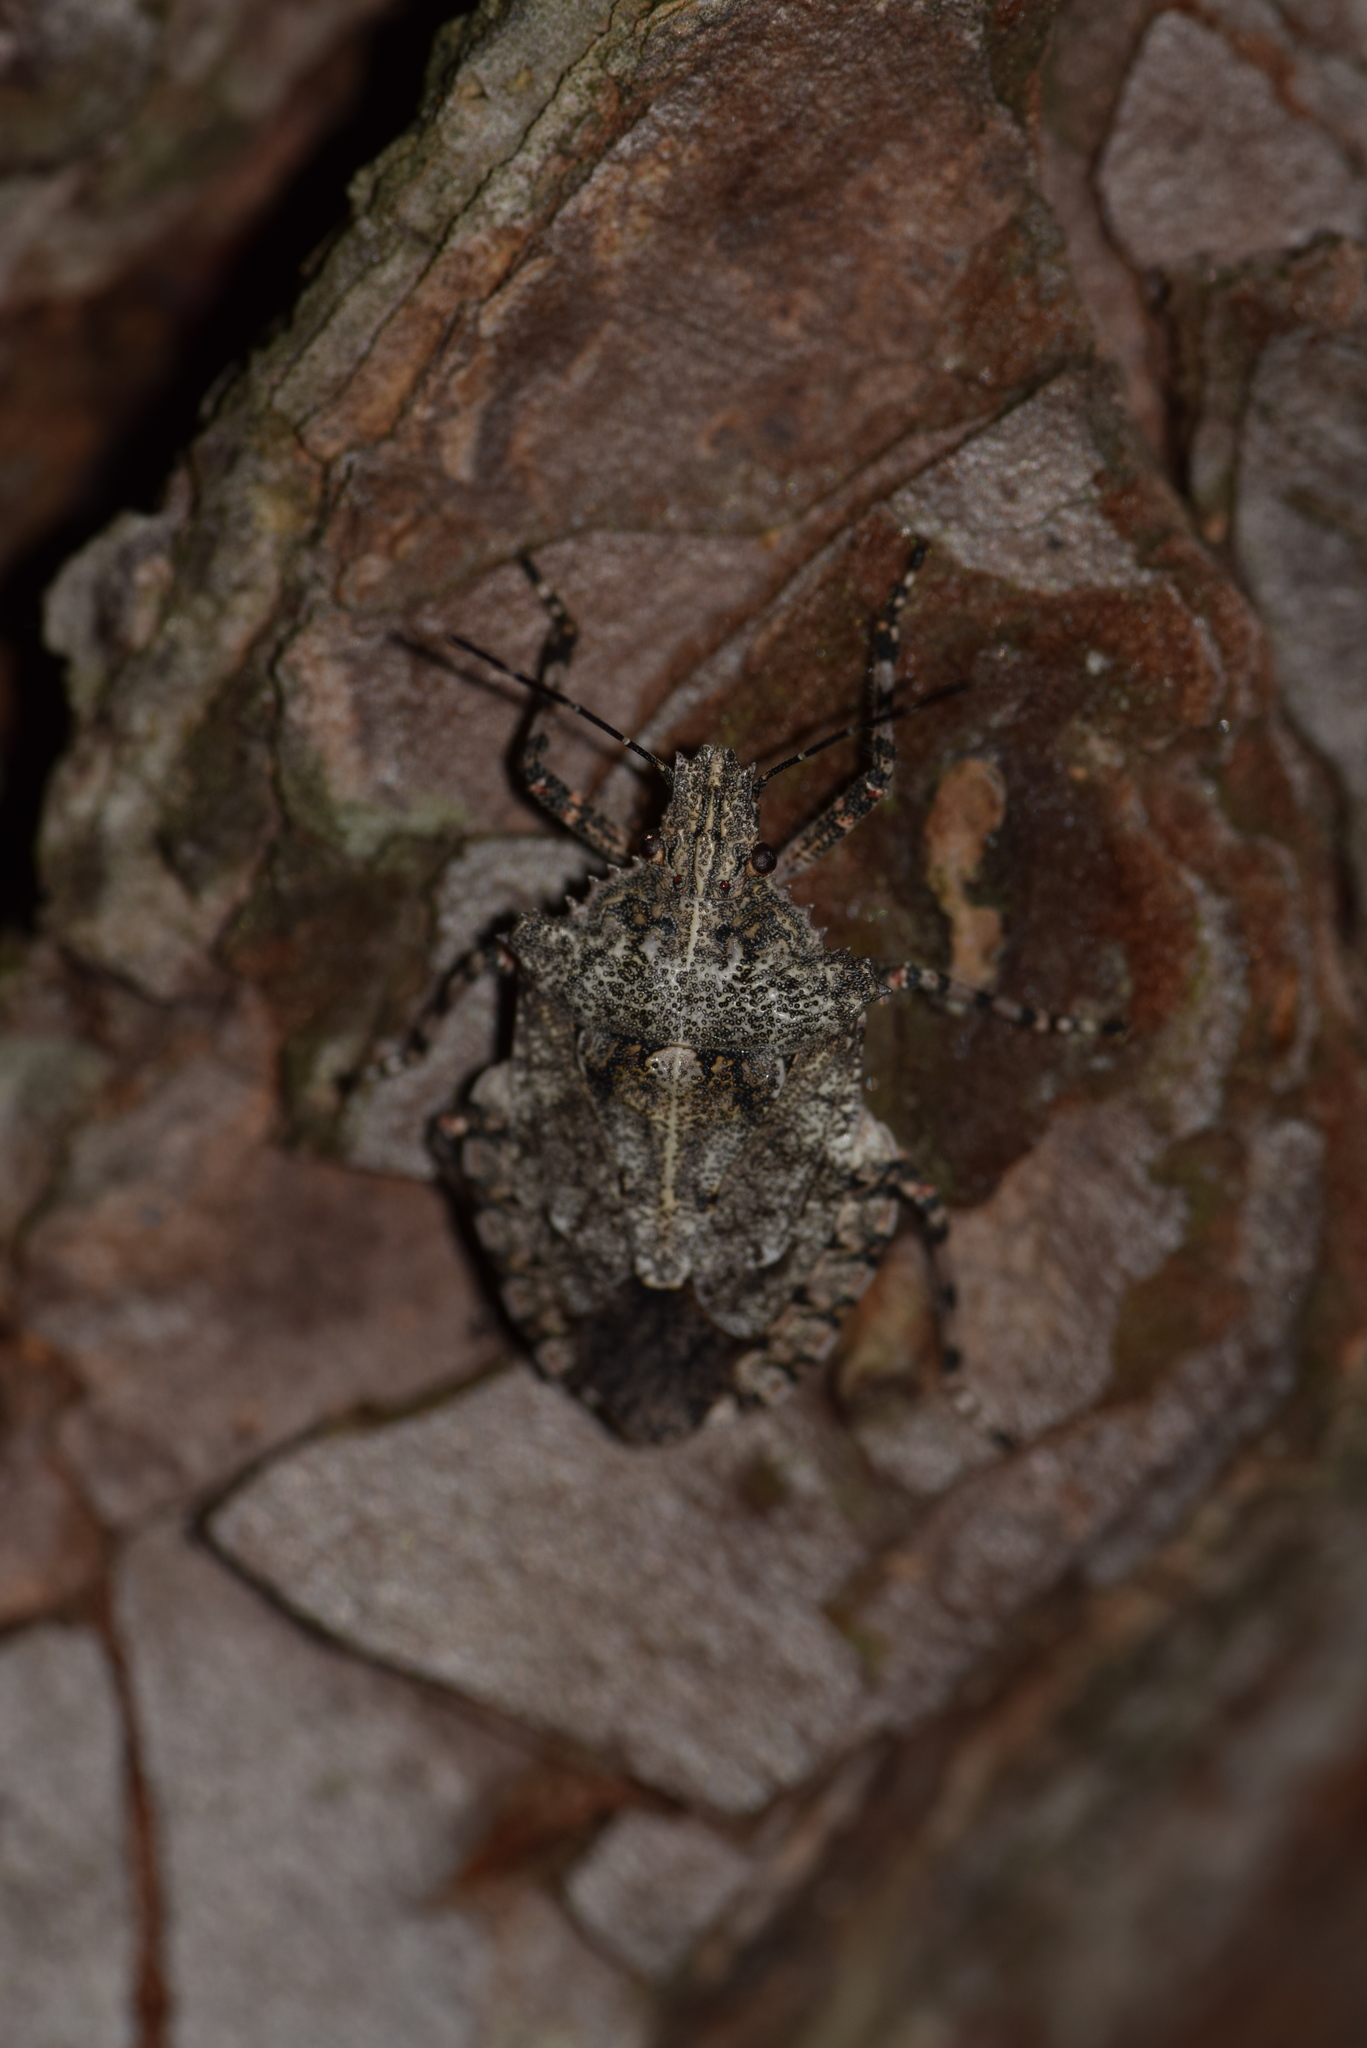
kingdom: Animalia
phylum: Arthropoda
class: Insecta
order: Hemiptera
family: Pentatomidae
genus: Brochymena
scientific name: Brochymena arborea
